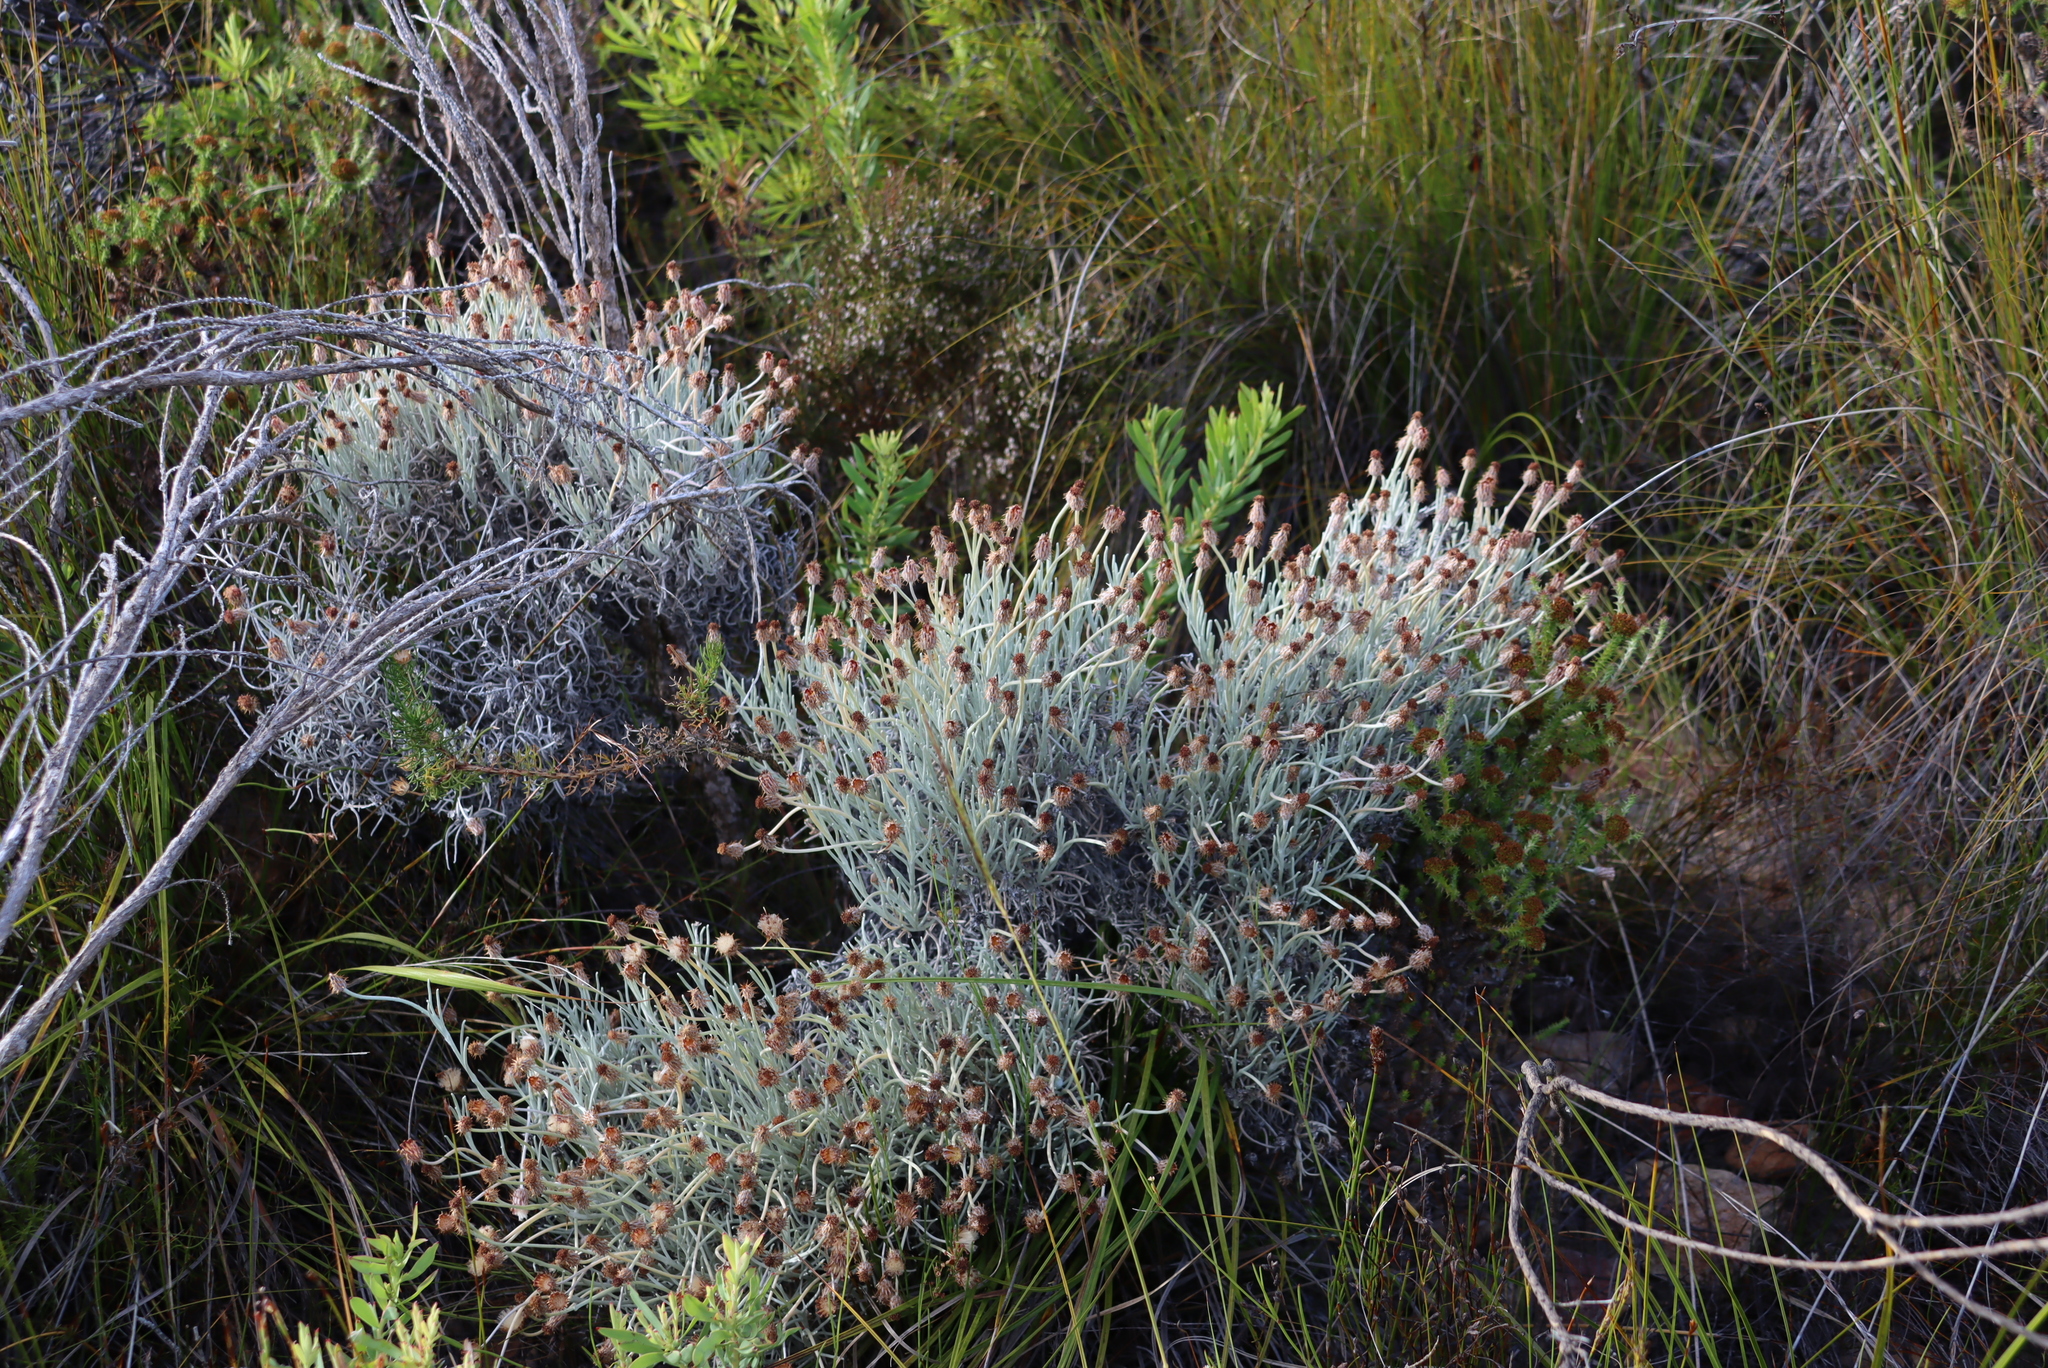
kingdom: Plantae
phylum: Tracheophyta
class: Magnoliopsida
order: Asterales
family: Asteraceae
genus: Syncarpha
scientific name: Syncarpha gnaphaloides
